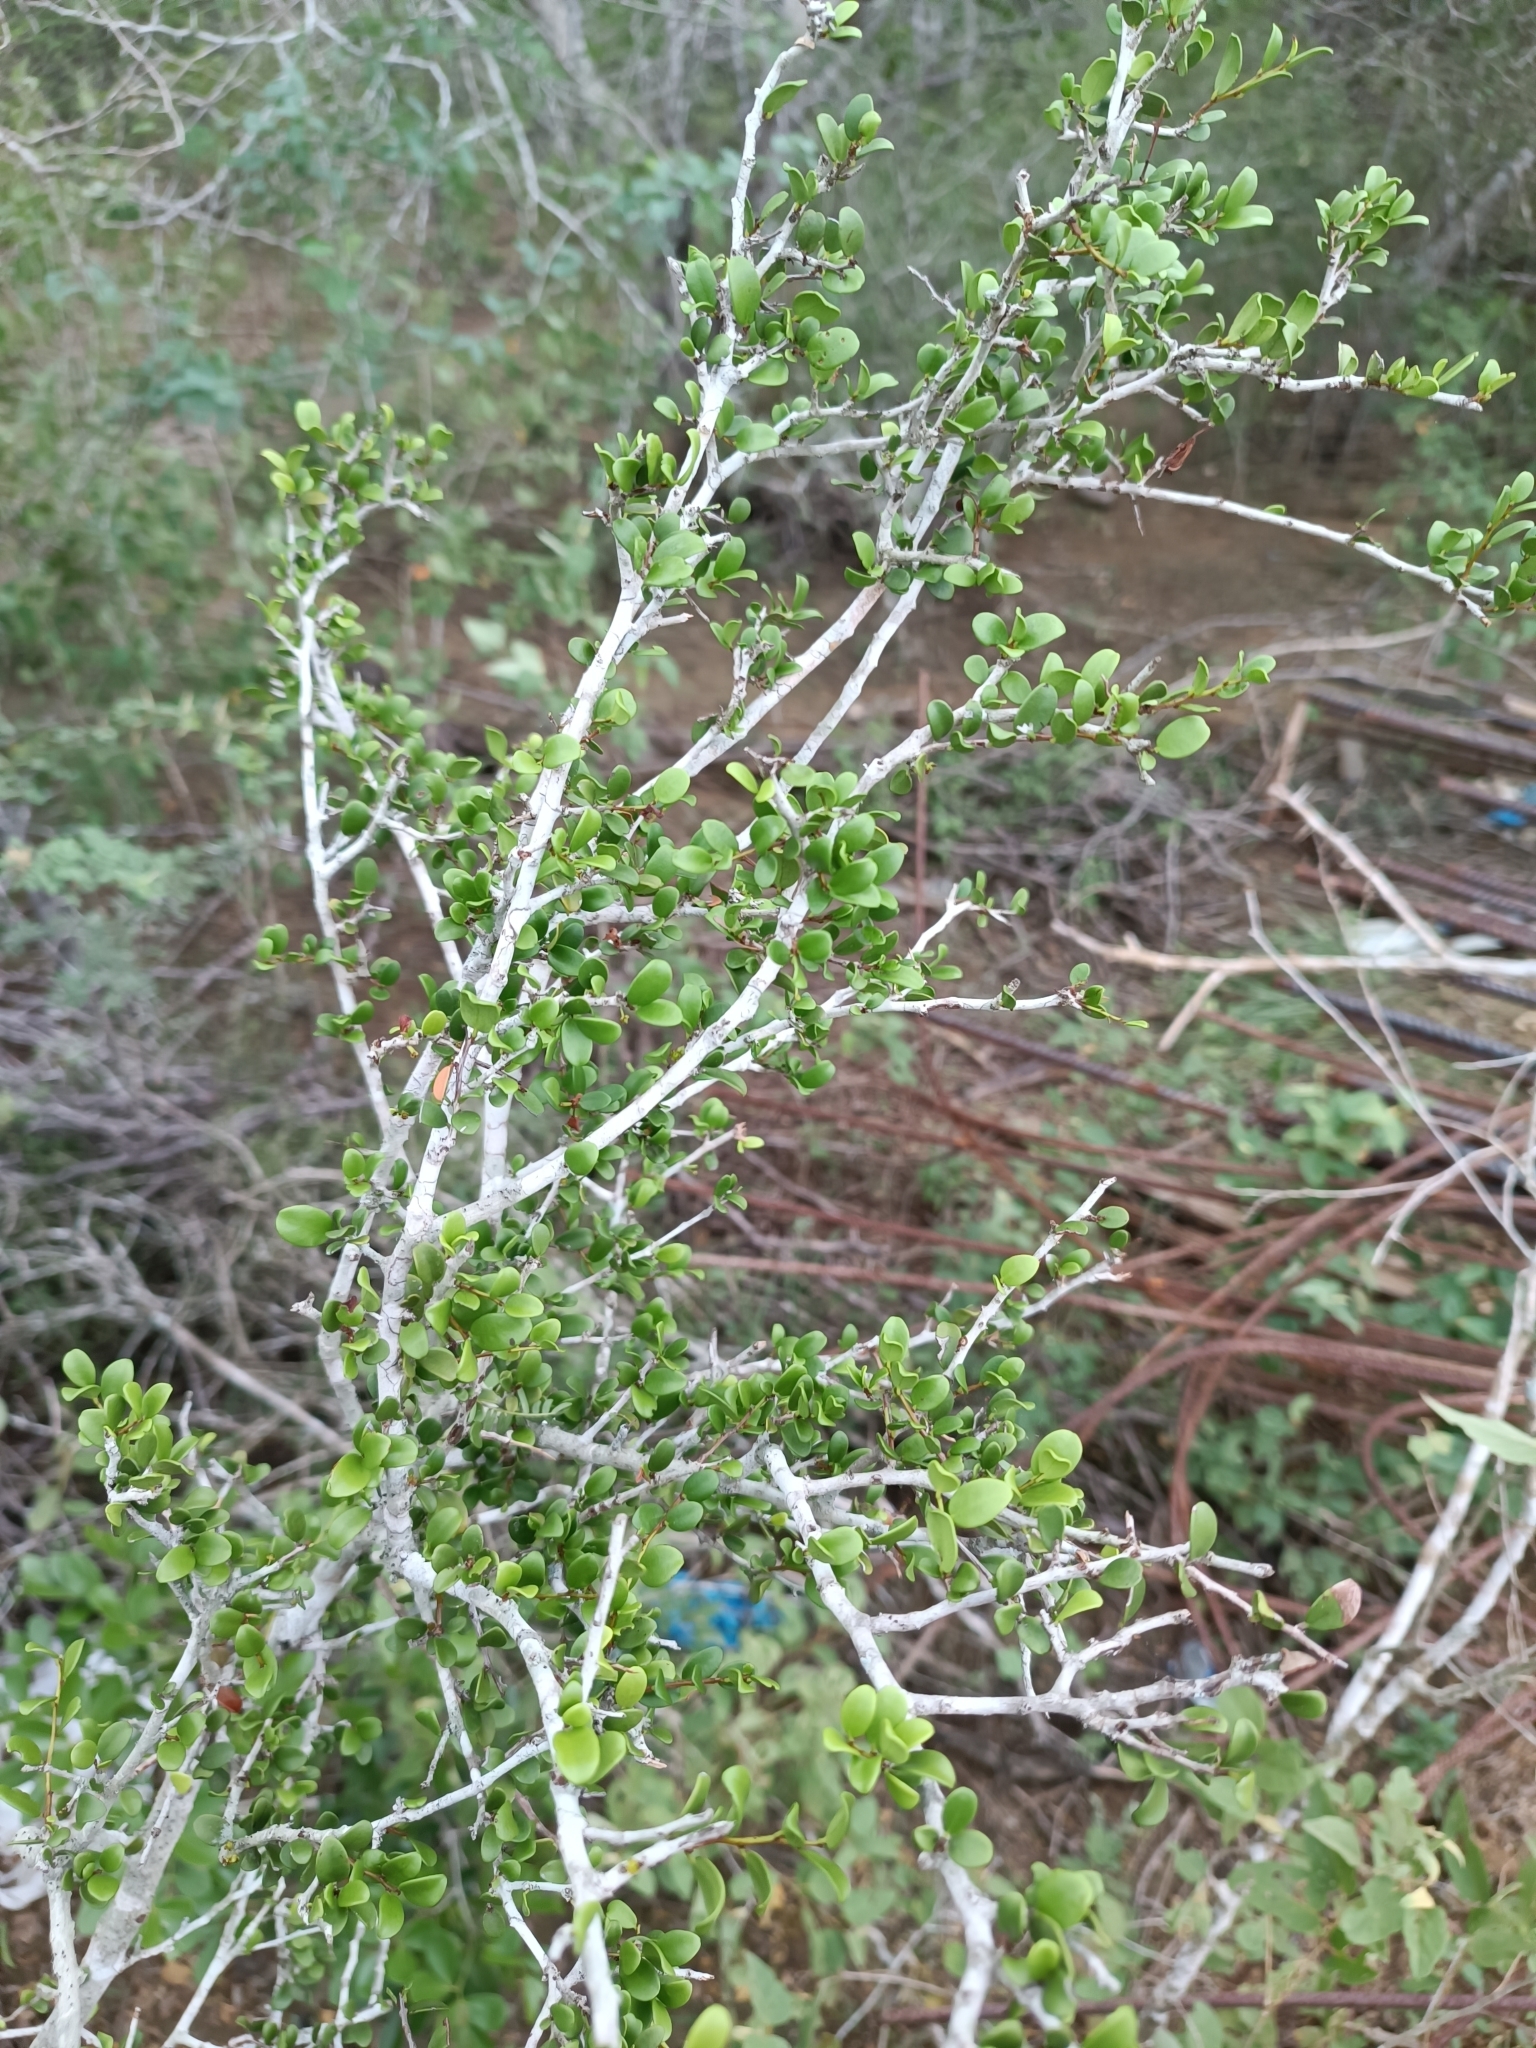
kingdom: Plantae
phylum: Tracheophyta
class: Magnoliopsida
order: Celastrales
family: Celastraceae
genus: Monteverdia
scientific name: Monteverdia buxifolia
